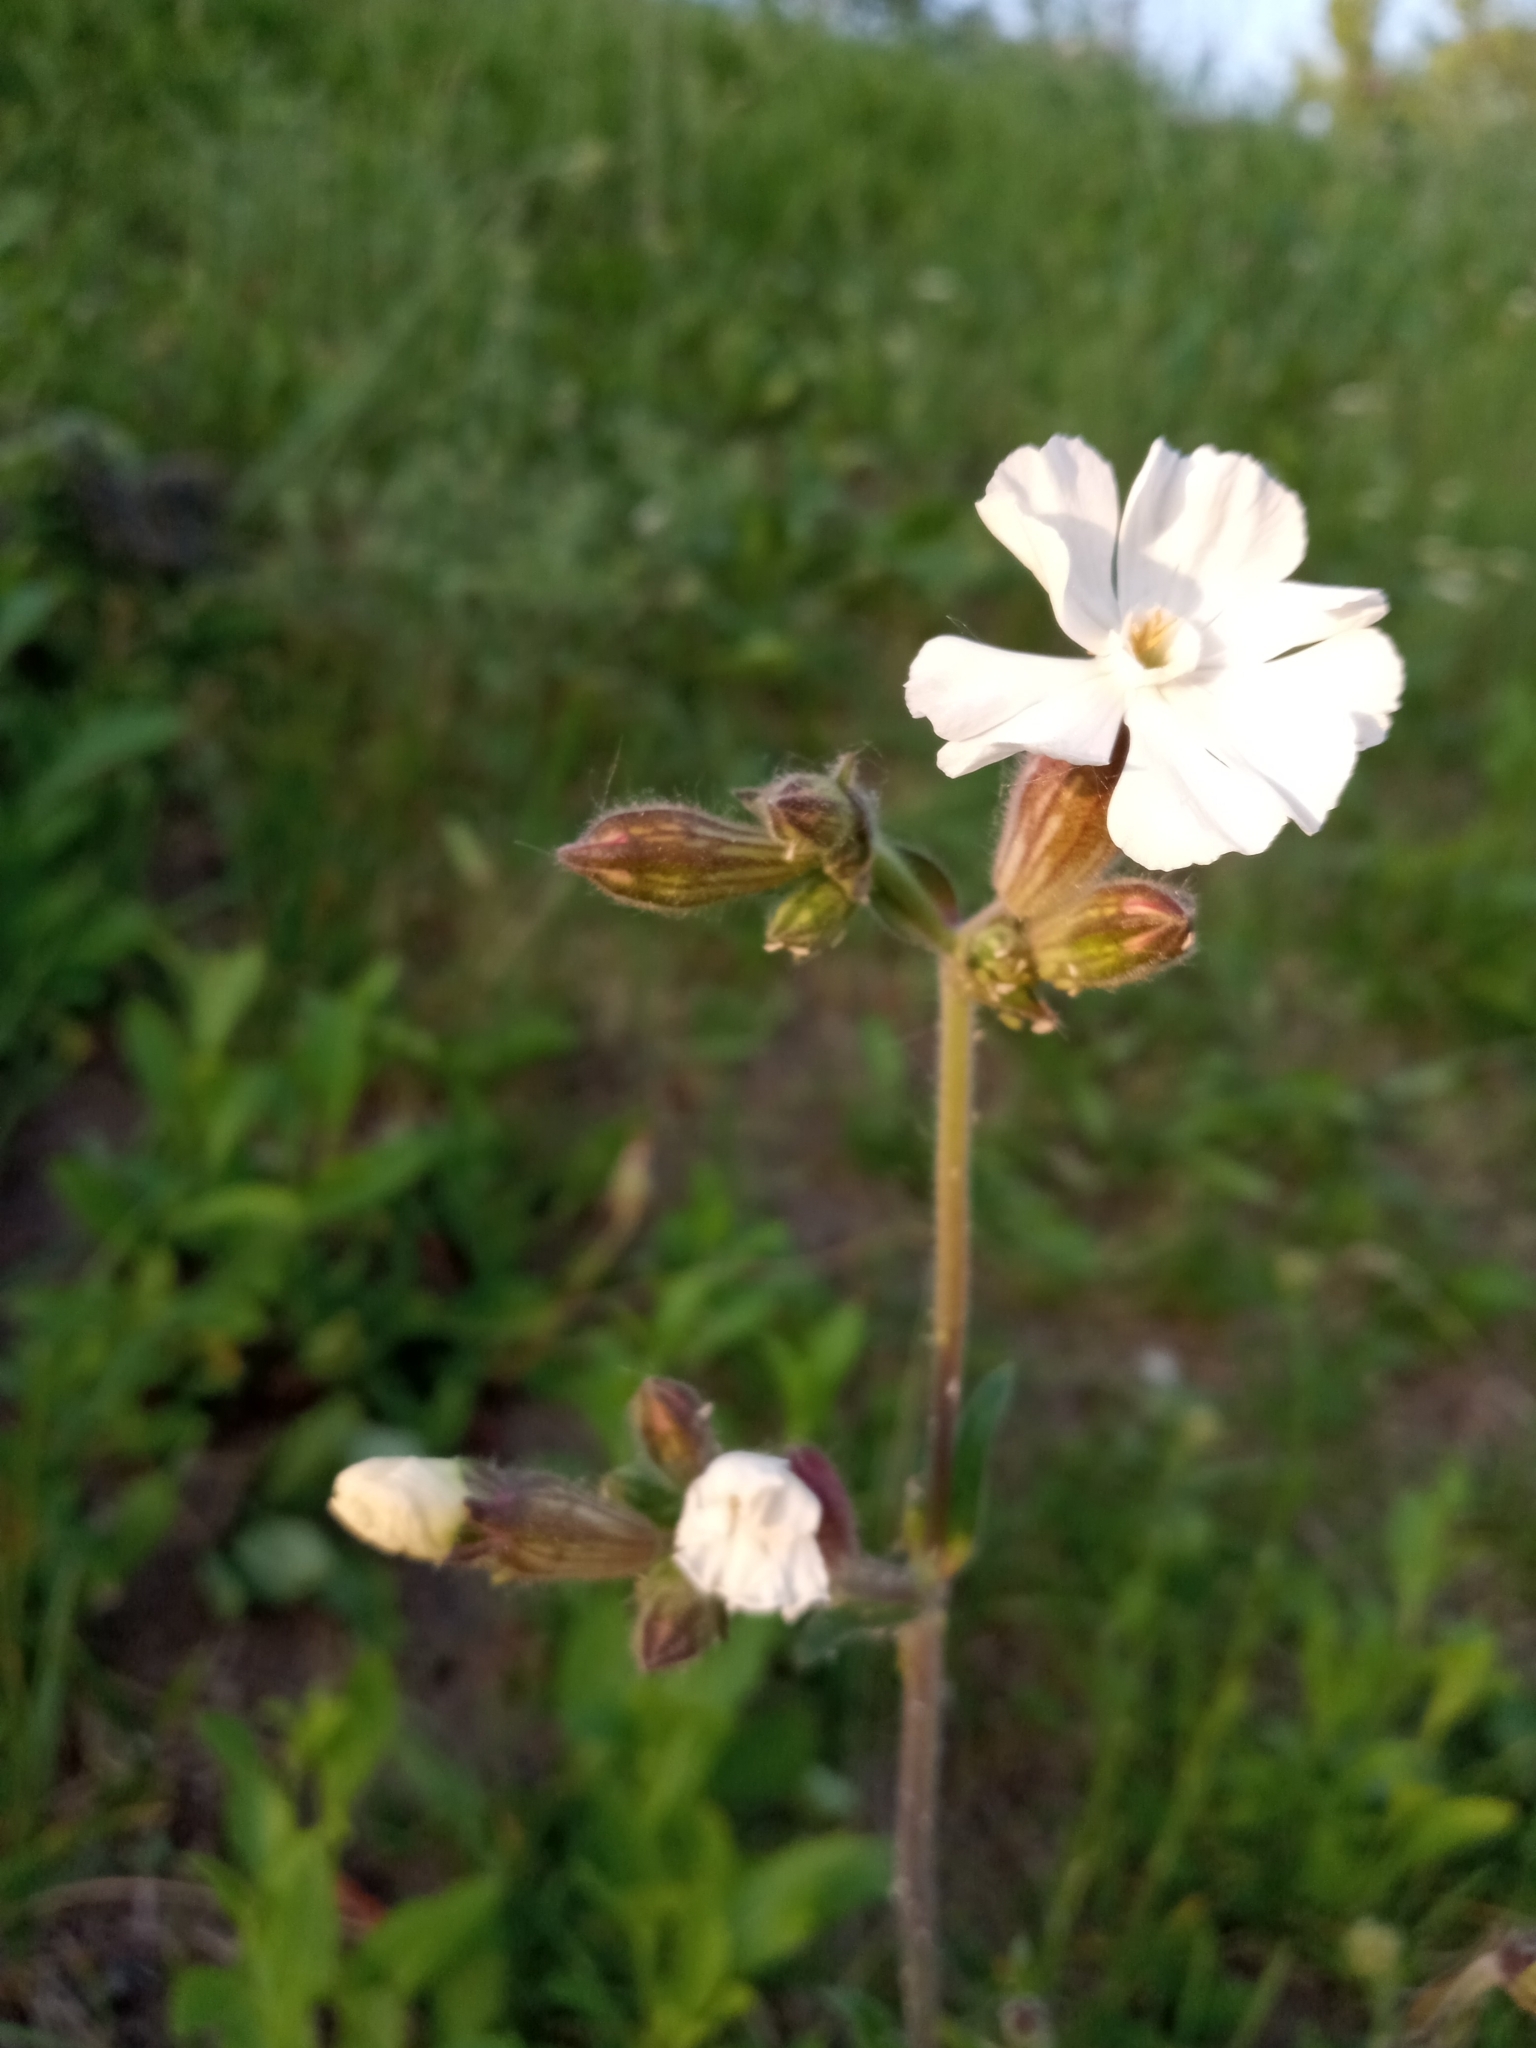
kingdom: Plantae
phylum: Tracheophyta
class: Magnoliopsida
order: Caryophyllales
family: Caryophyllaceae
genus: Silene
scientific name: Silene latifolia
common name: White campion
